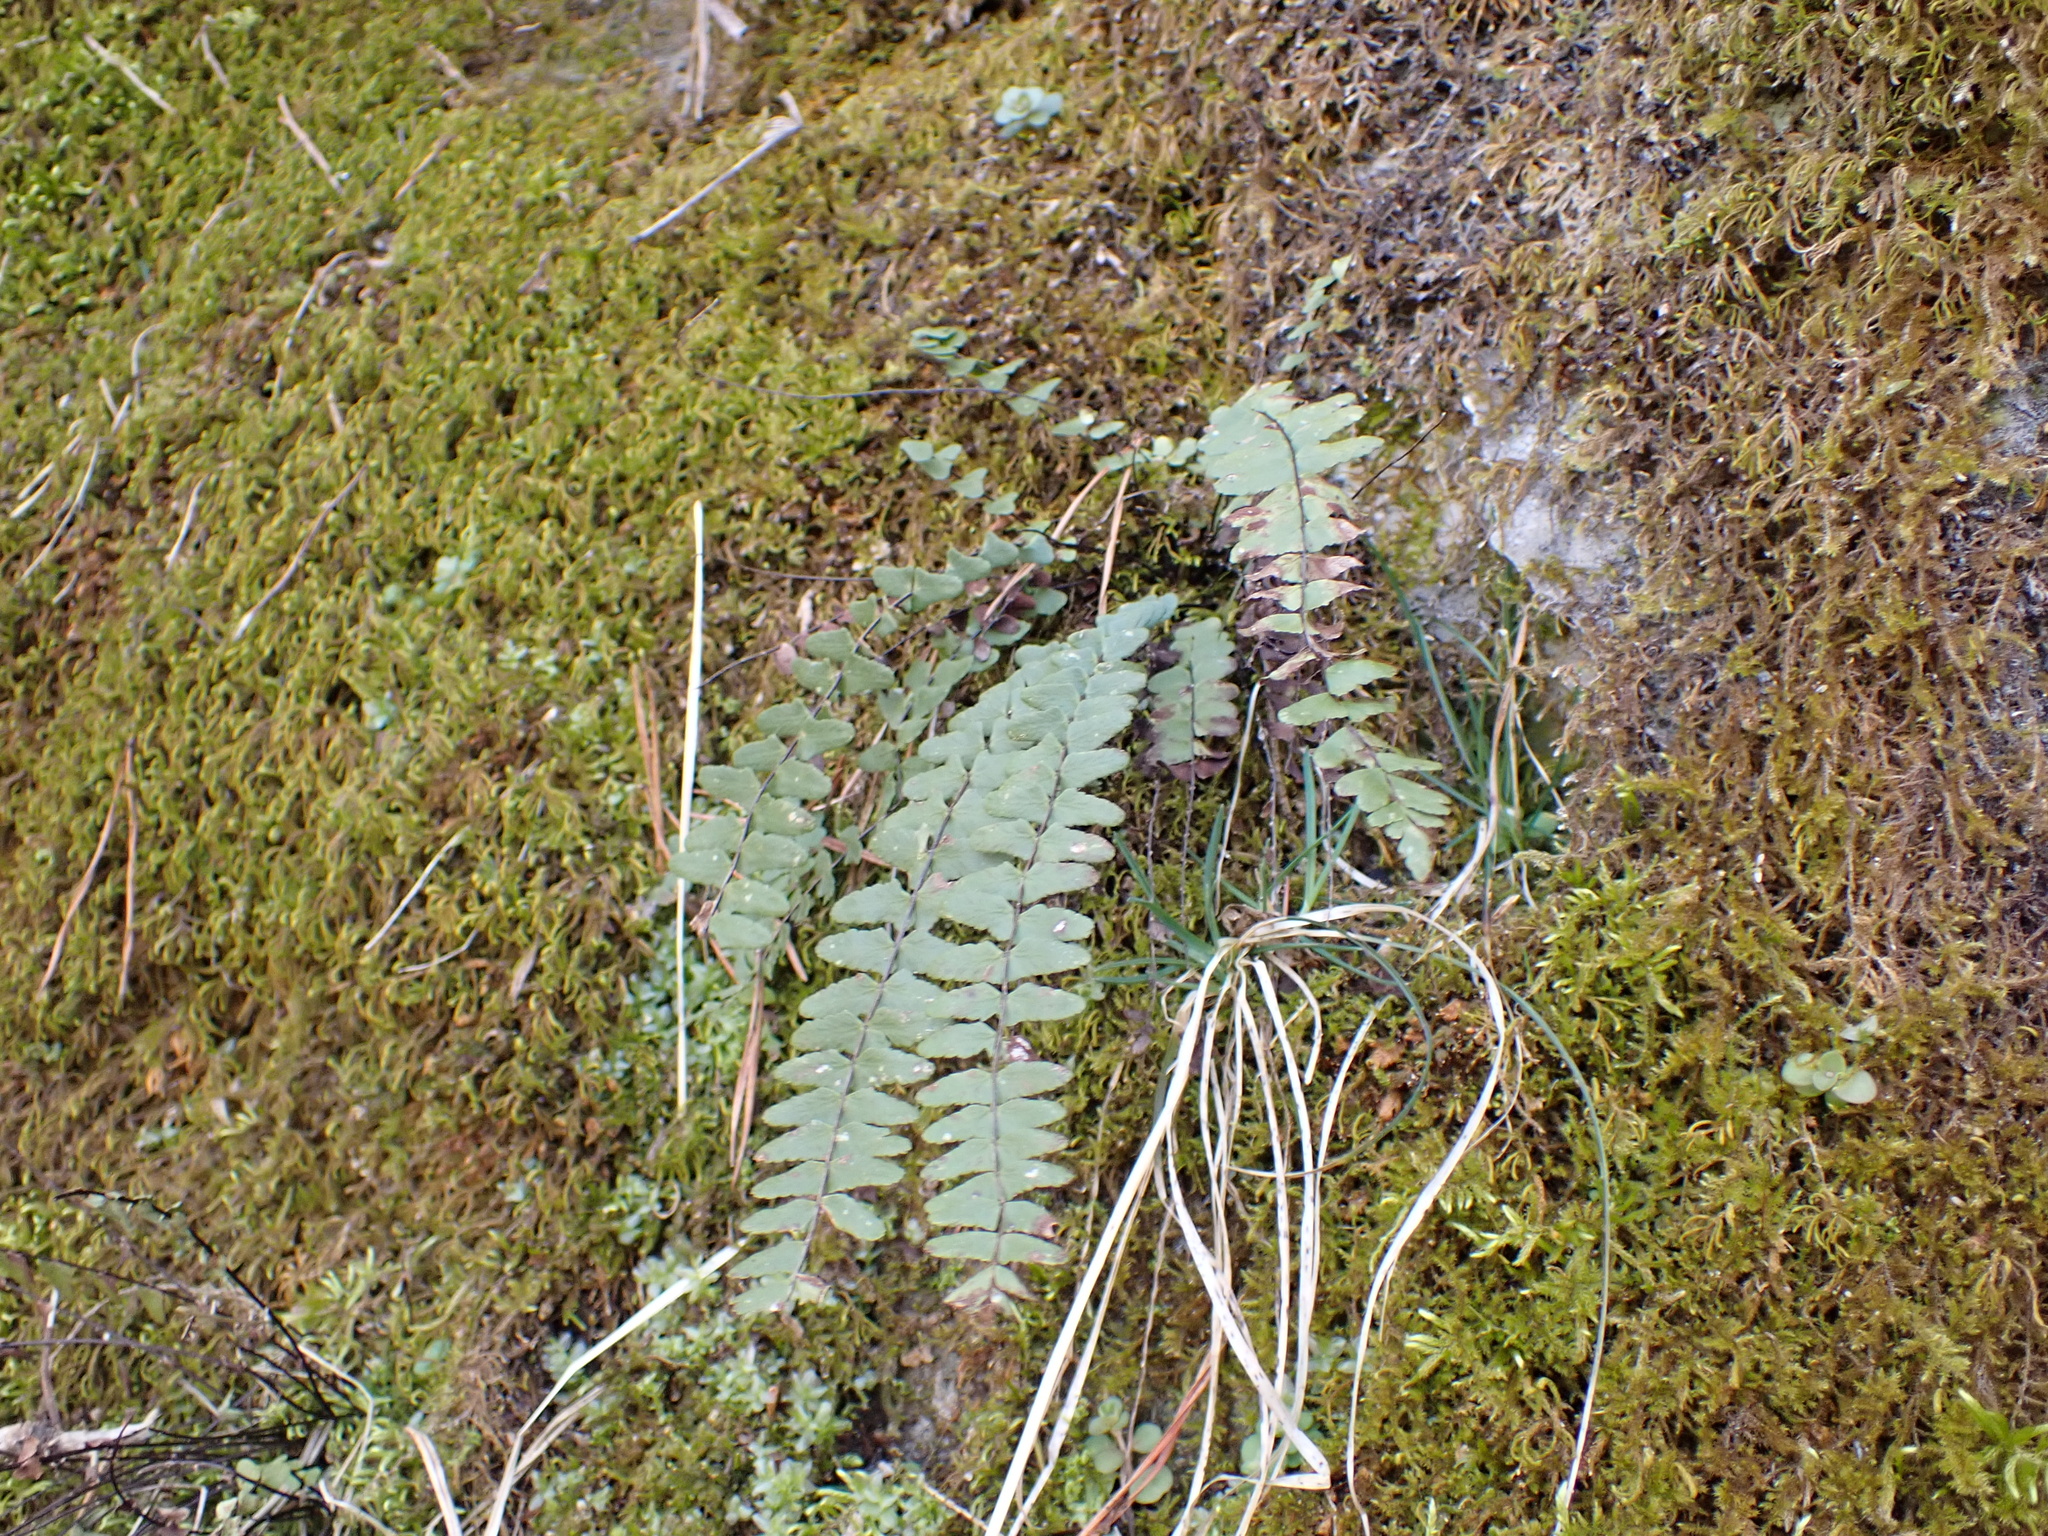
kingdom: Plantae
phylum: Tracheophyta
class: Polypodiopsida
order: Polypodiales
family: Aspleniaceae
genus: Asplenium
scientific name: Asplenium resiliens
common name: Blackstem spleenwort
